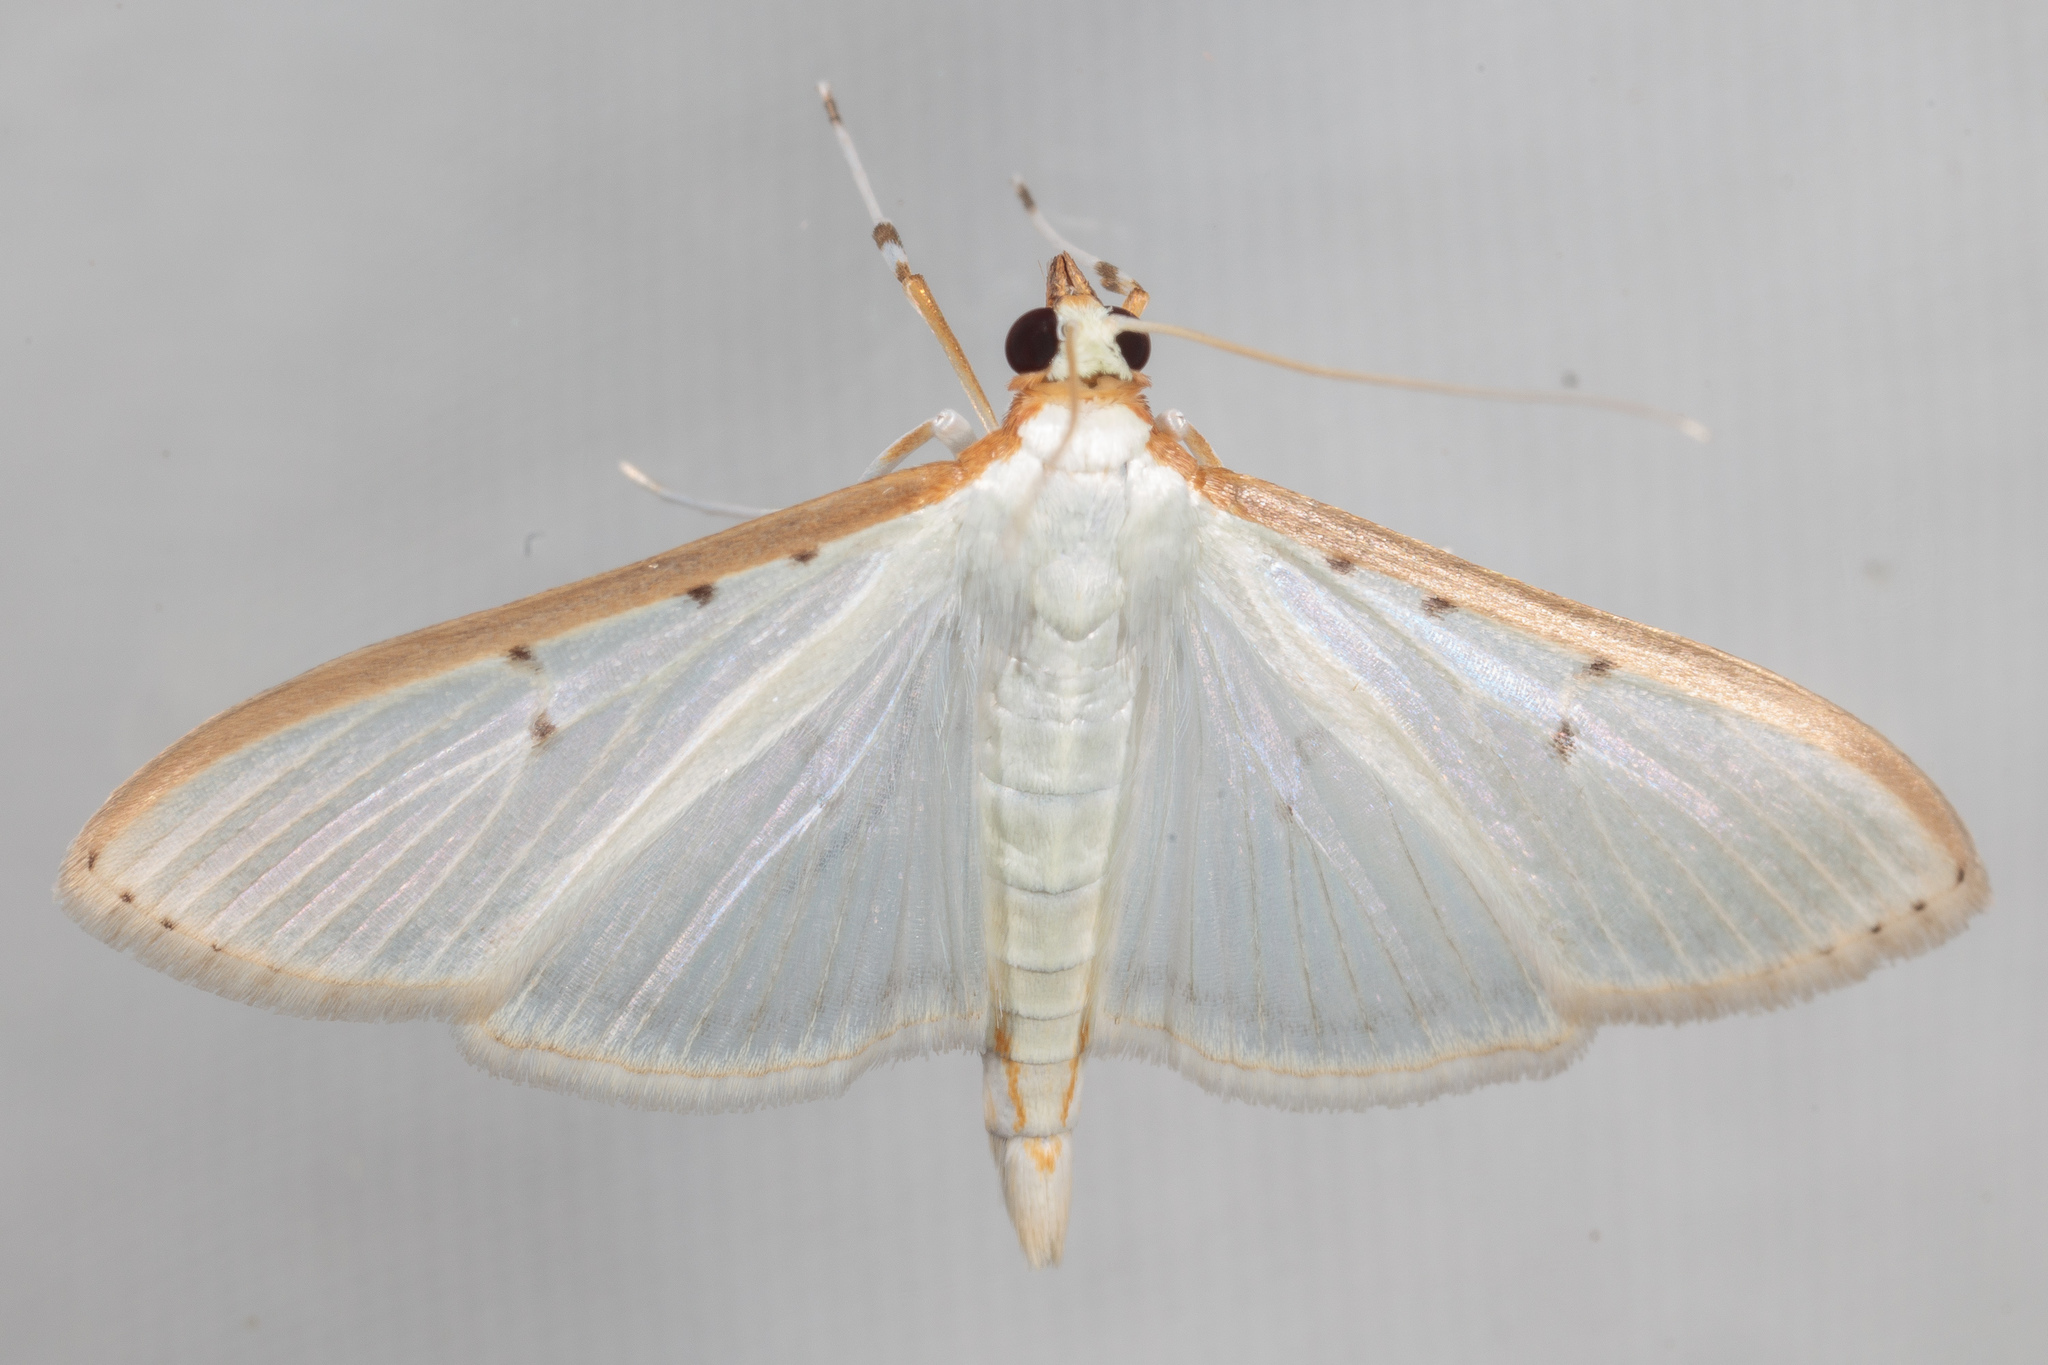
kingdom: Animalia
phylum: Arthropoda
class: Insecta
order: Lepidoptera
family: Crambidae
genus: Palpita
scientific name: Palpita quadristigmalis
